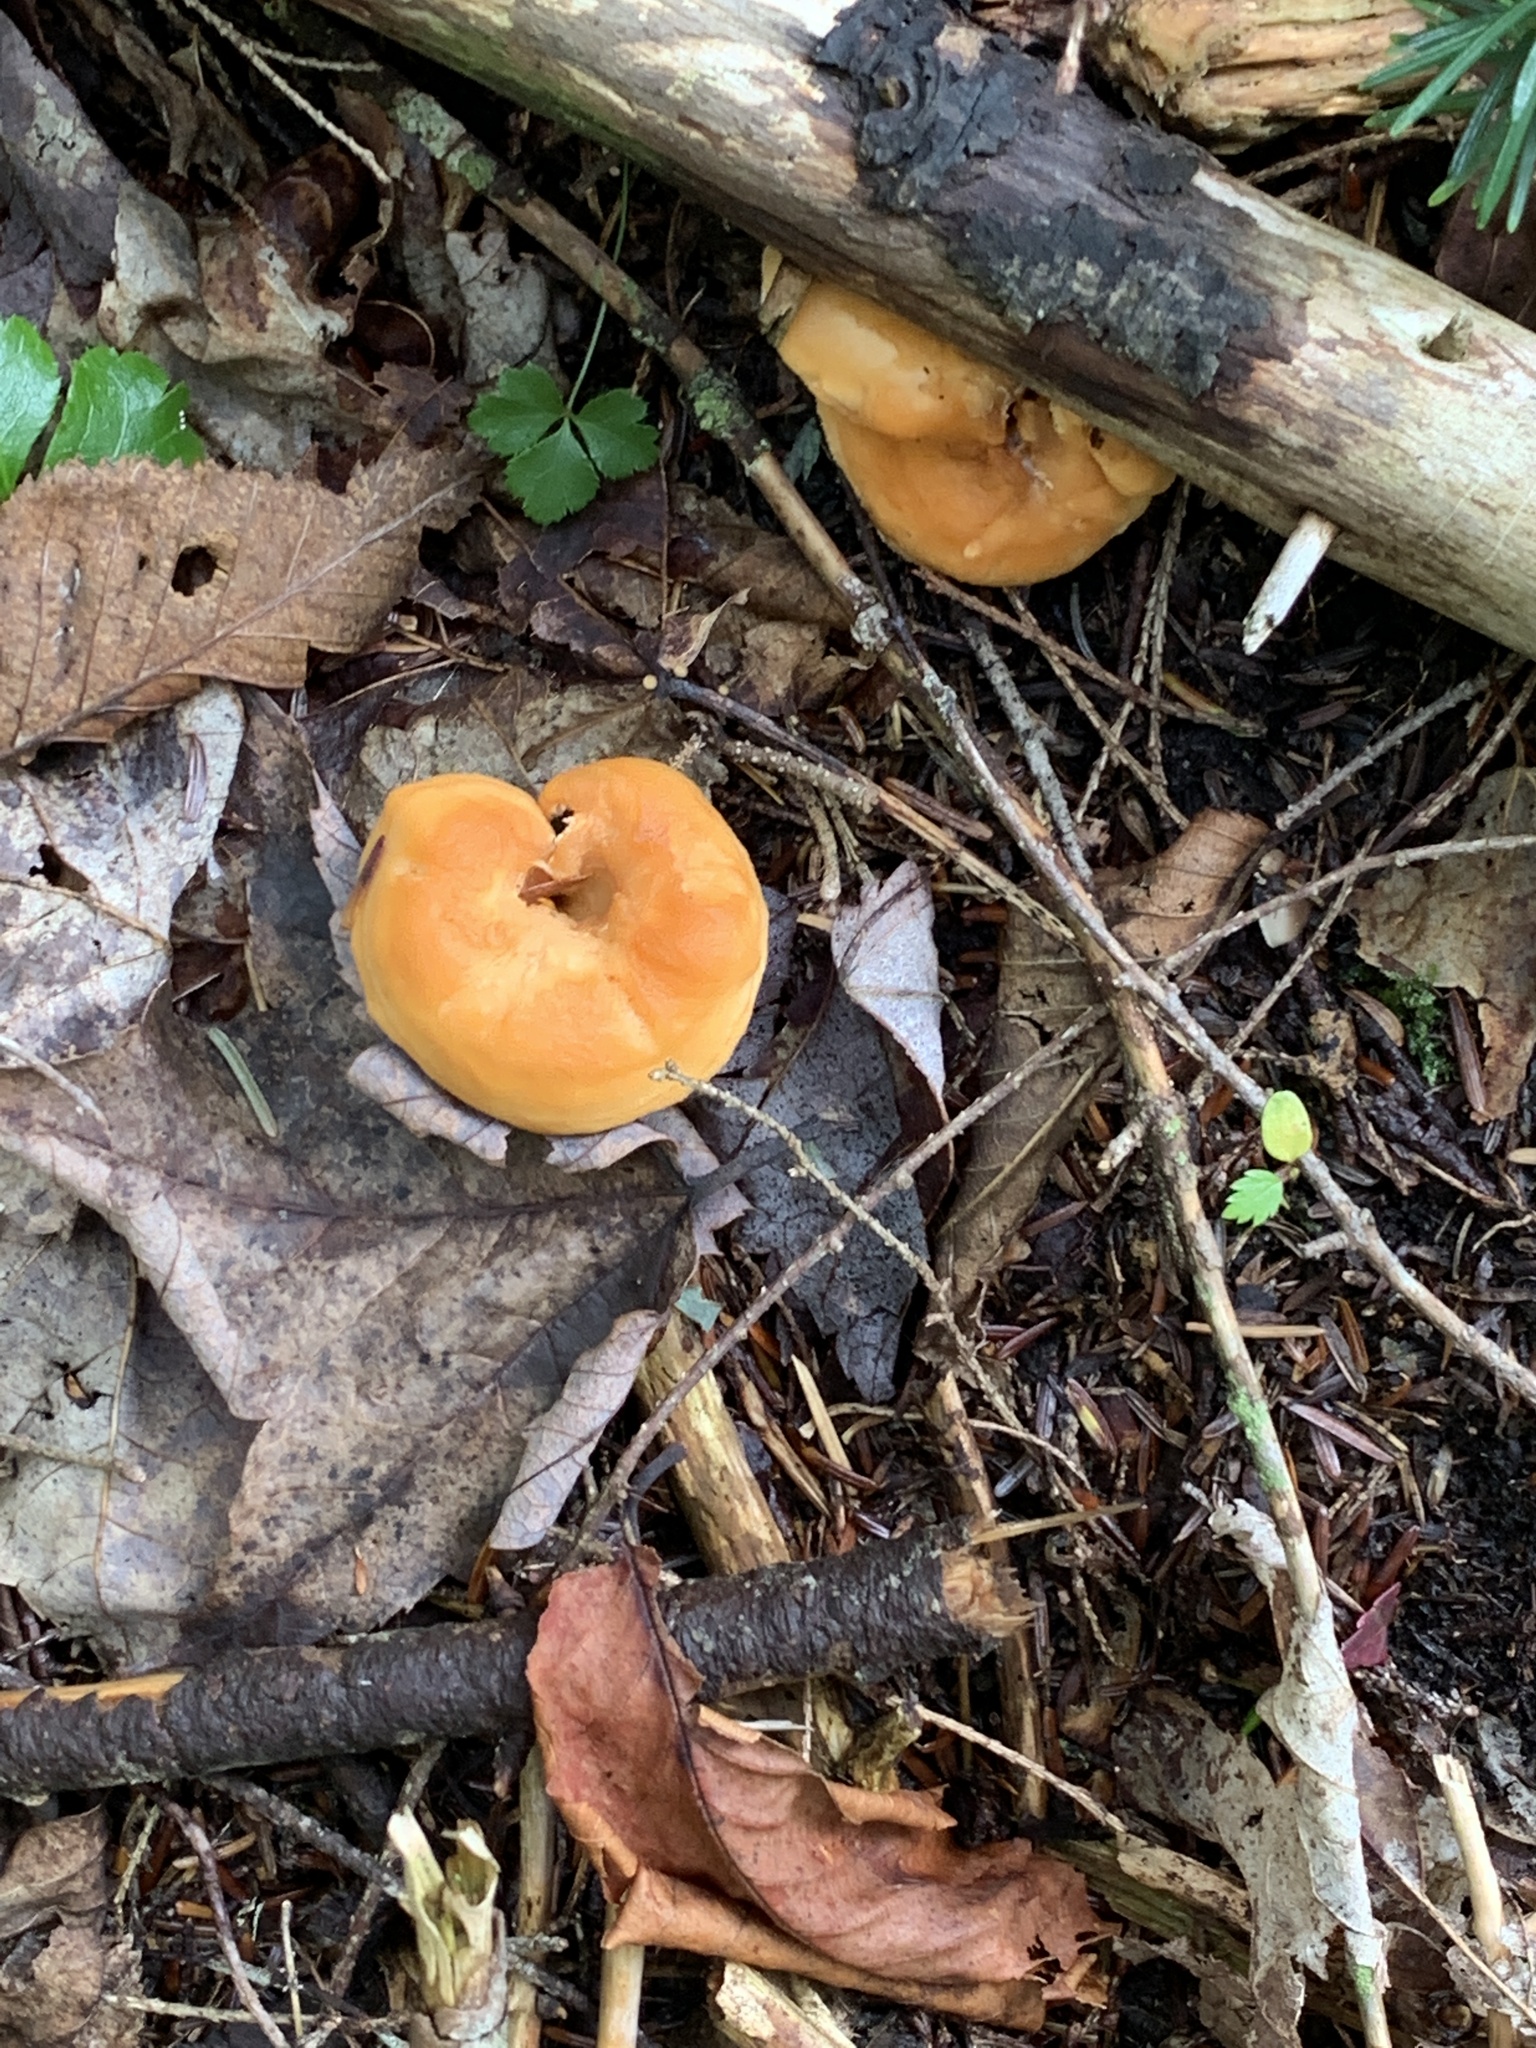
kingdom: Fungi
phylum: Basidiomycota
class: Agaricomycetes
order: Cantharellales
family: Hydnaceae
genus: Hydnum
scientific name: Hydnum umbilicatum
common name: Umbilicate hedgehog
